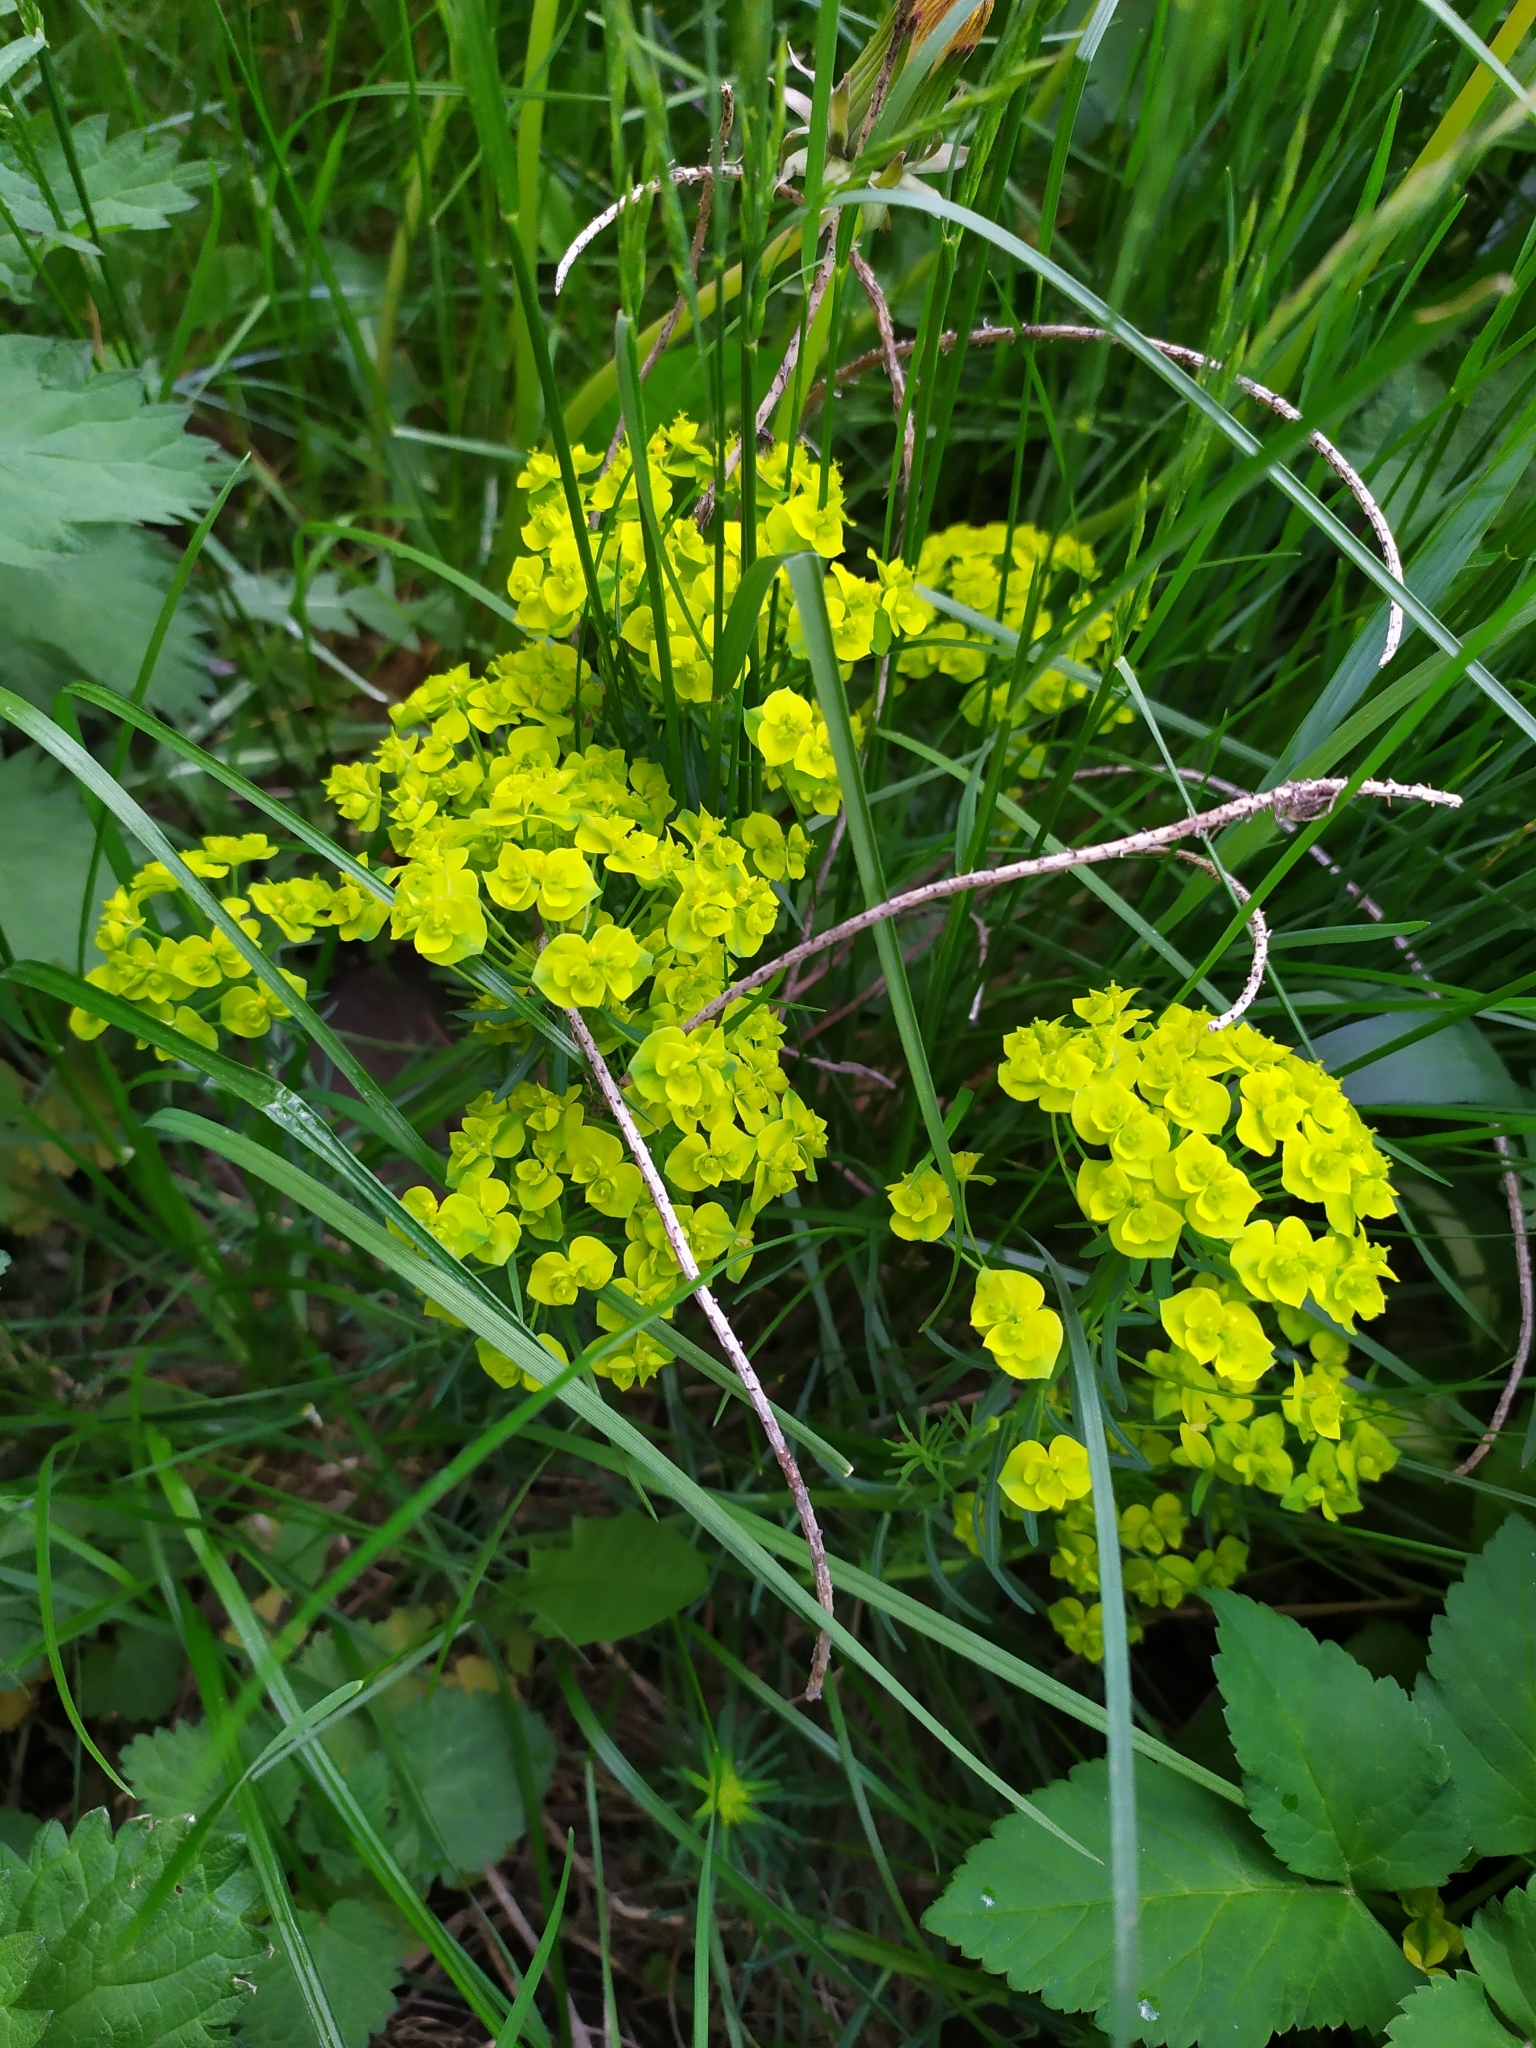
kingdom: Plantae
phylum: Tracheophyta
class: Magnoliopsida
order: Malpighiales
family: Euphorbiaceae
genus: Euphorbia
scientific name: Euphorbia cyparissias
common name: Cypress spurge
